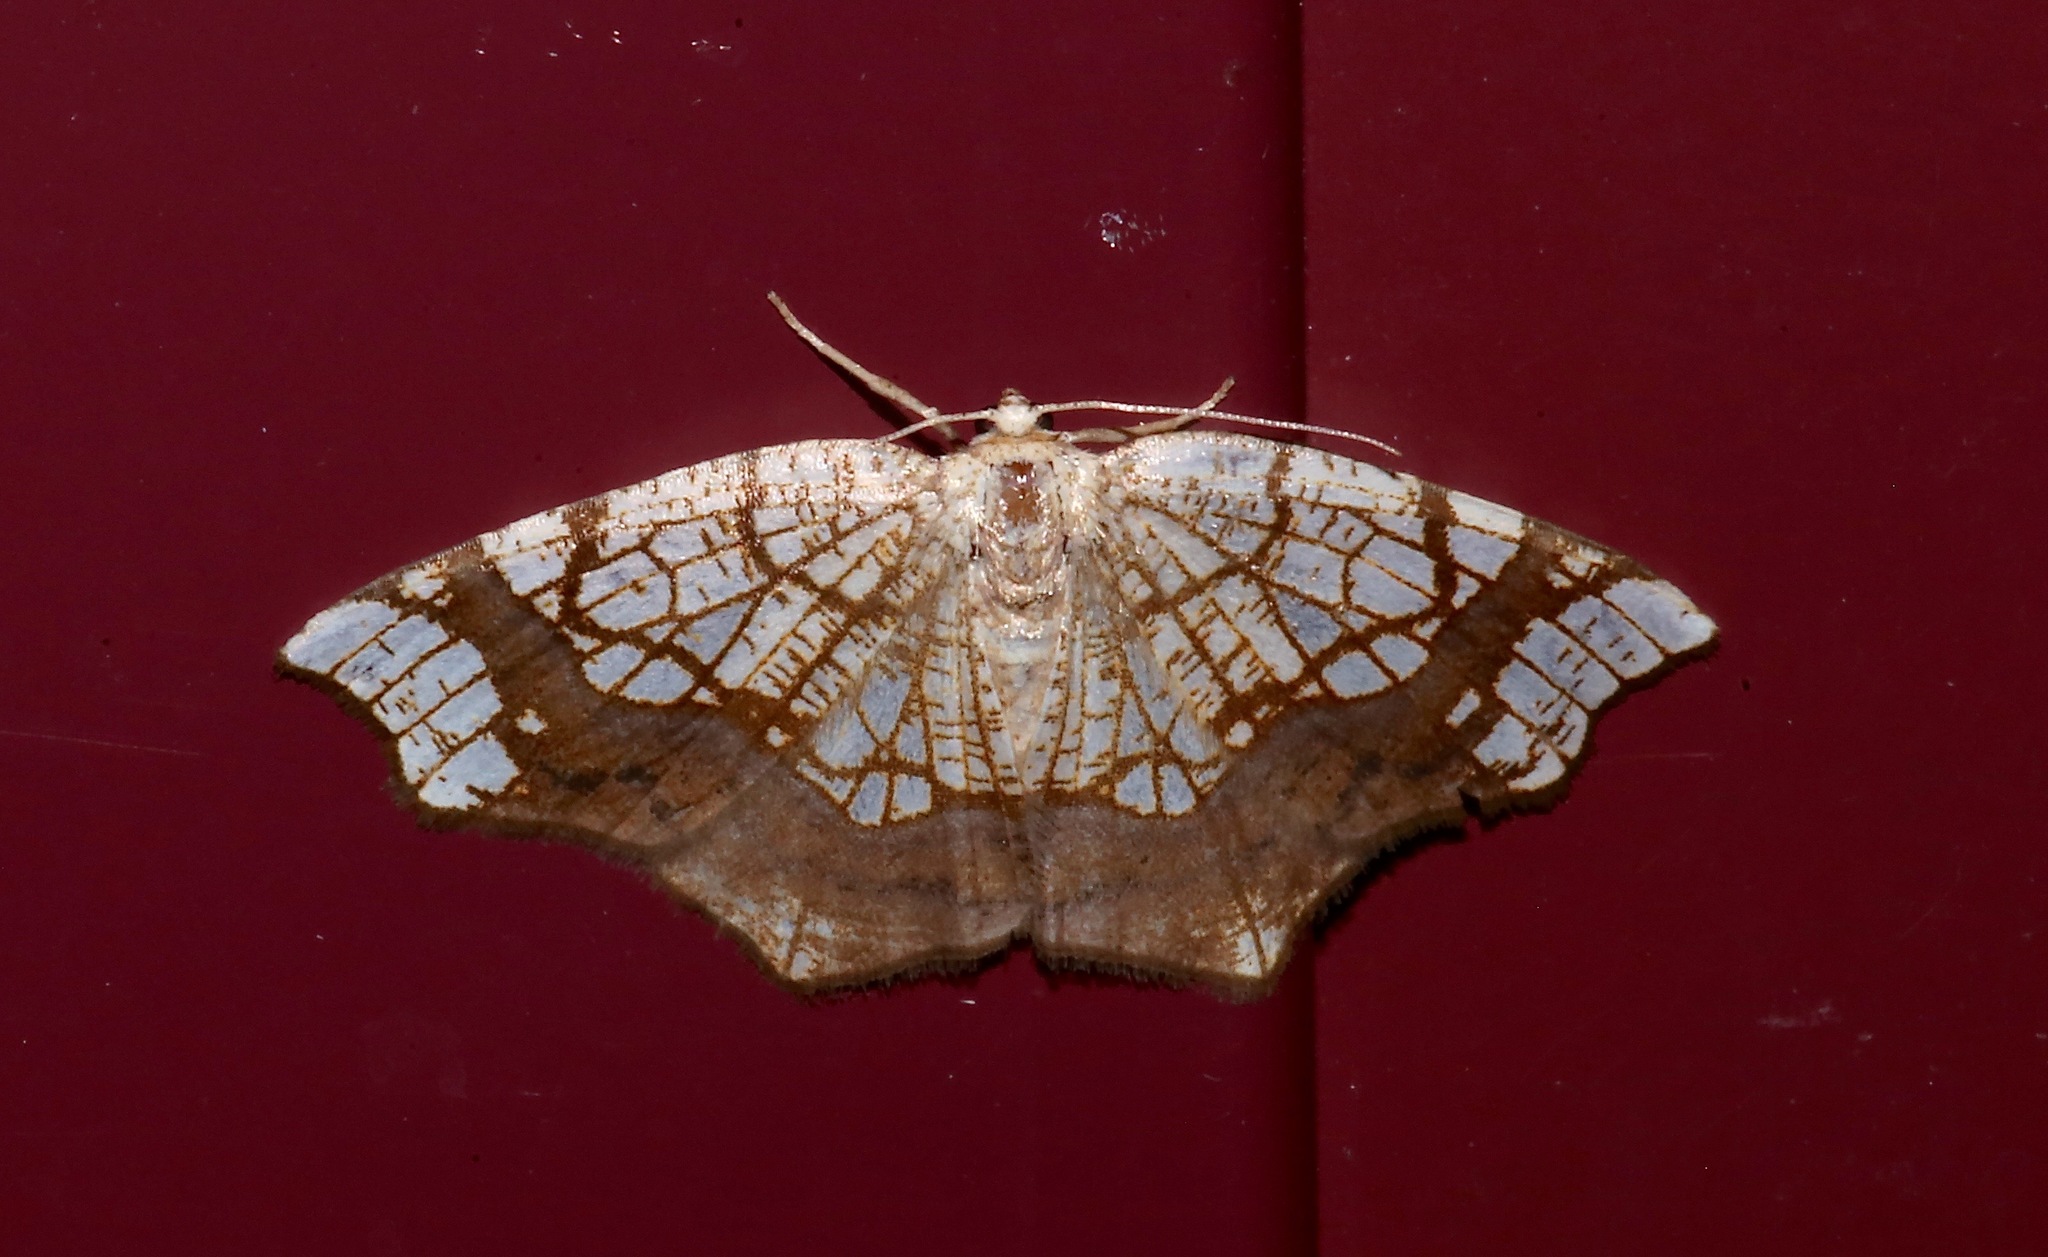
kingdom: Animalia
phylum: Arthropoda
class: Insecta
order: Lepidoptera
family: Geometridae
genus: Nematocampa
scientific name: Nematocampa resistaria
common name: Horned spanworm moth
